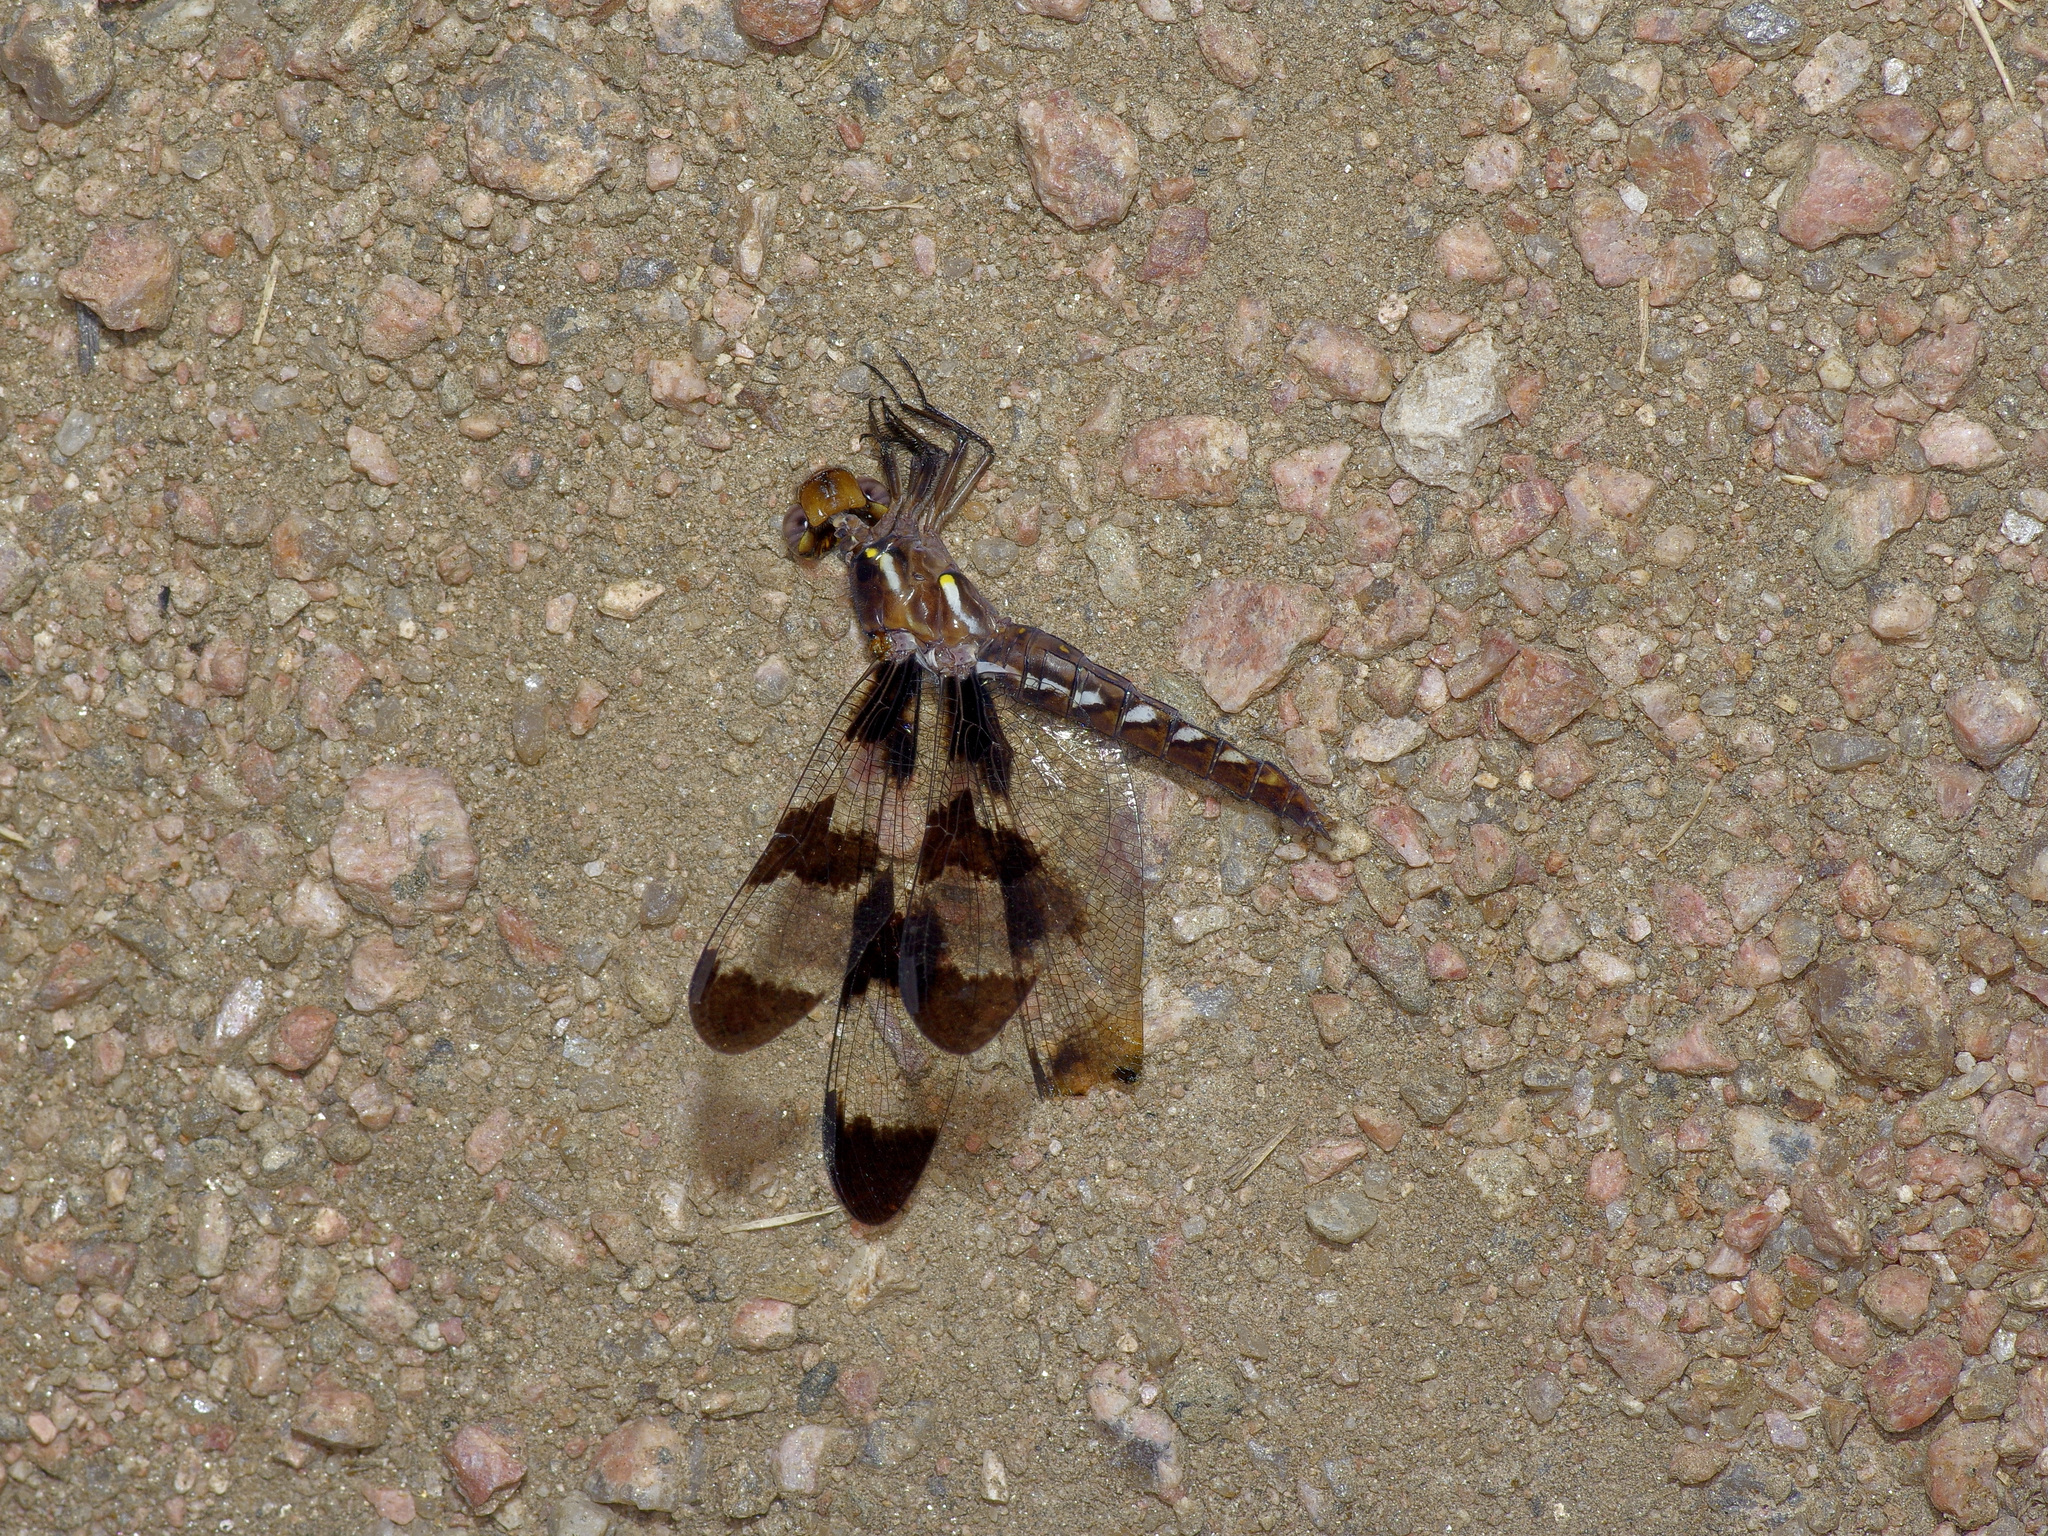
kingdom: Animalia
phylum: Arthropoda
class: Insecta
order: Odonata
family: Libellulidae
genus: Plathemis
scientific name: Plathemis lydia
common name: Common whitetail
